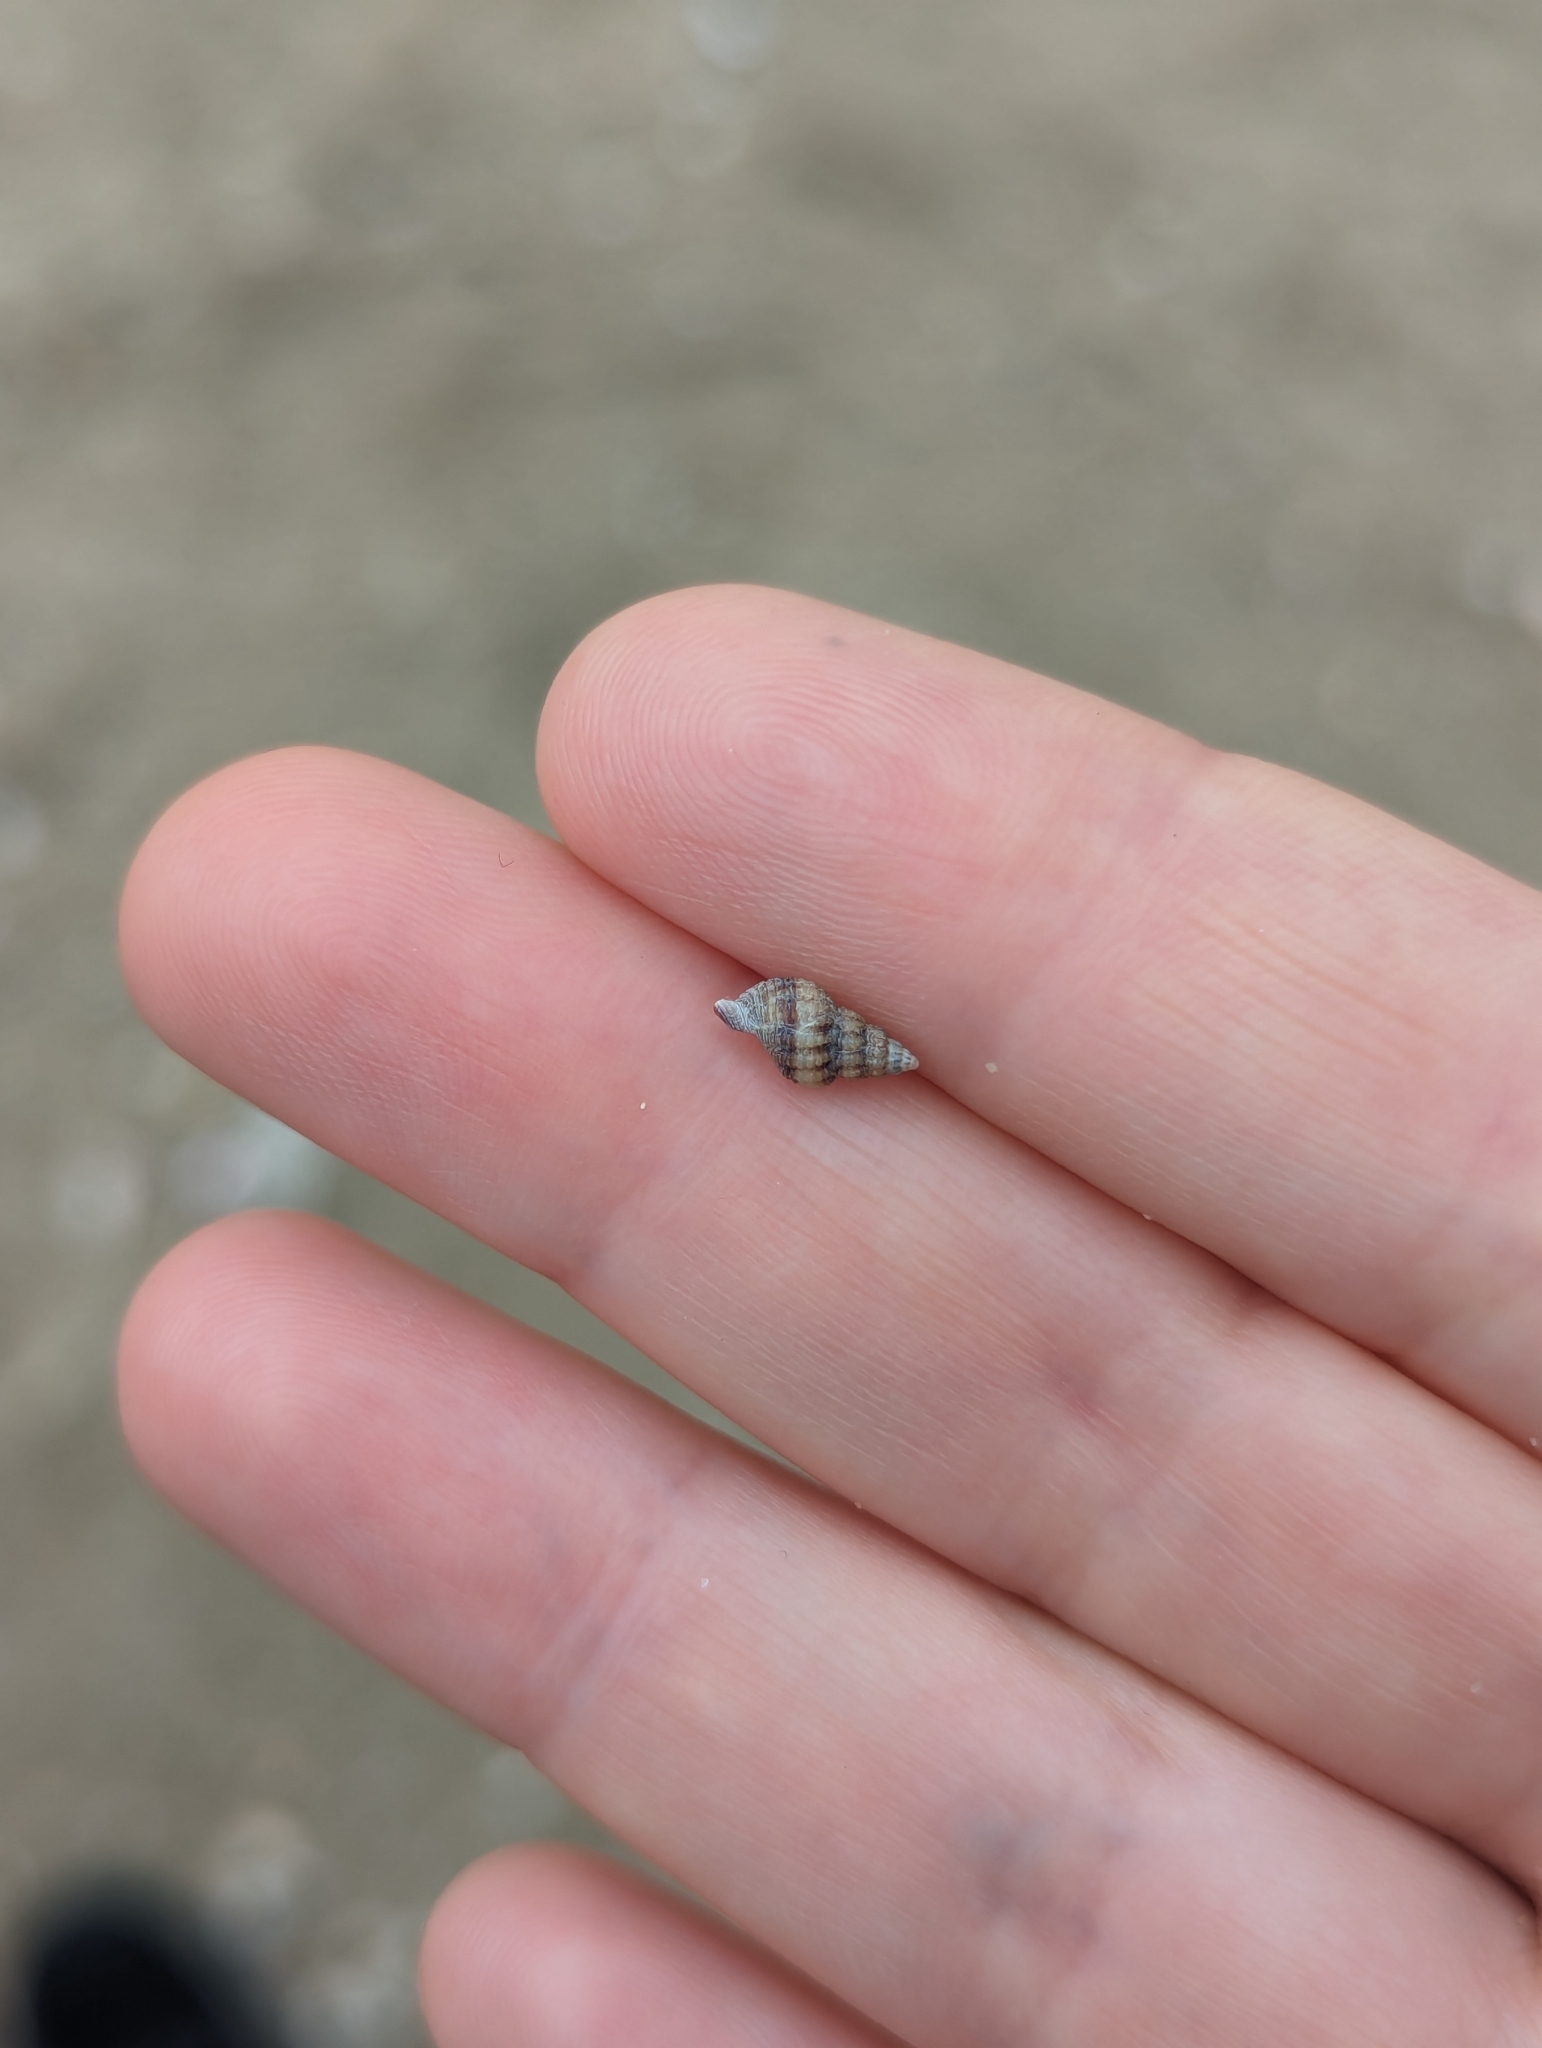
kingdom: Animalia
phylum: Mollusca
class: Gastropoda
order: Neogastropoda
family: Nassariidae
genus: Nassarius
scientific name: Nassarius fraterculus
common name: Japanese nassa
